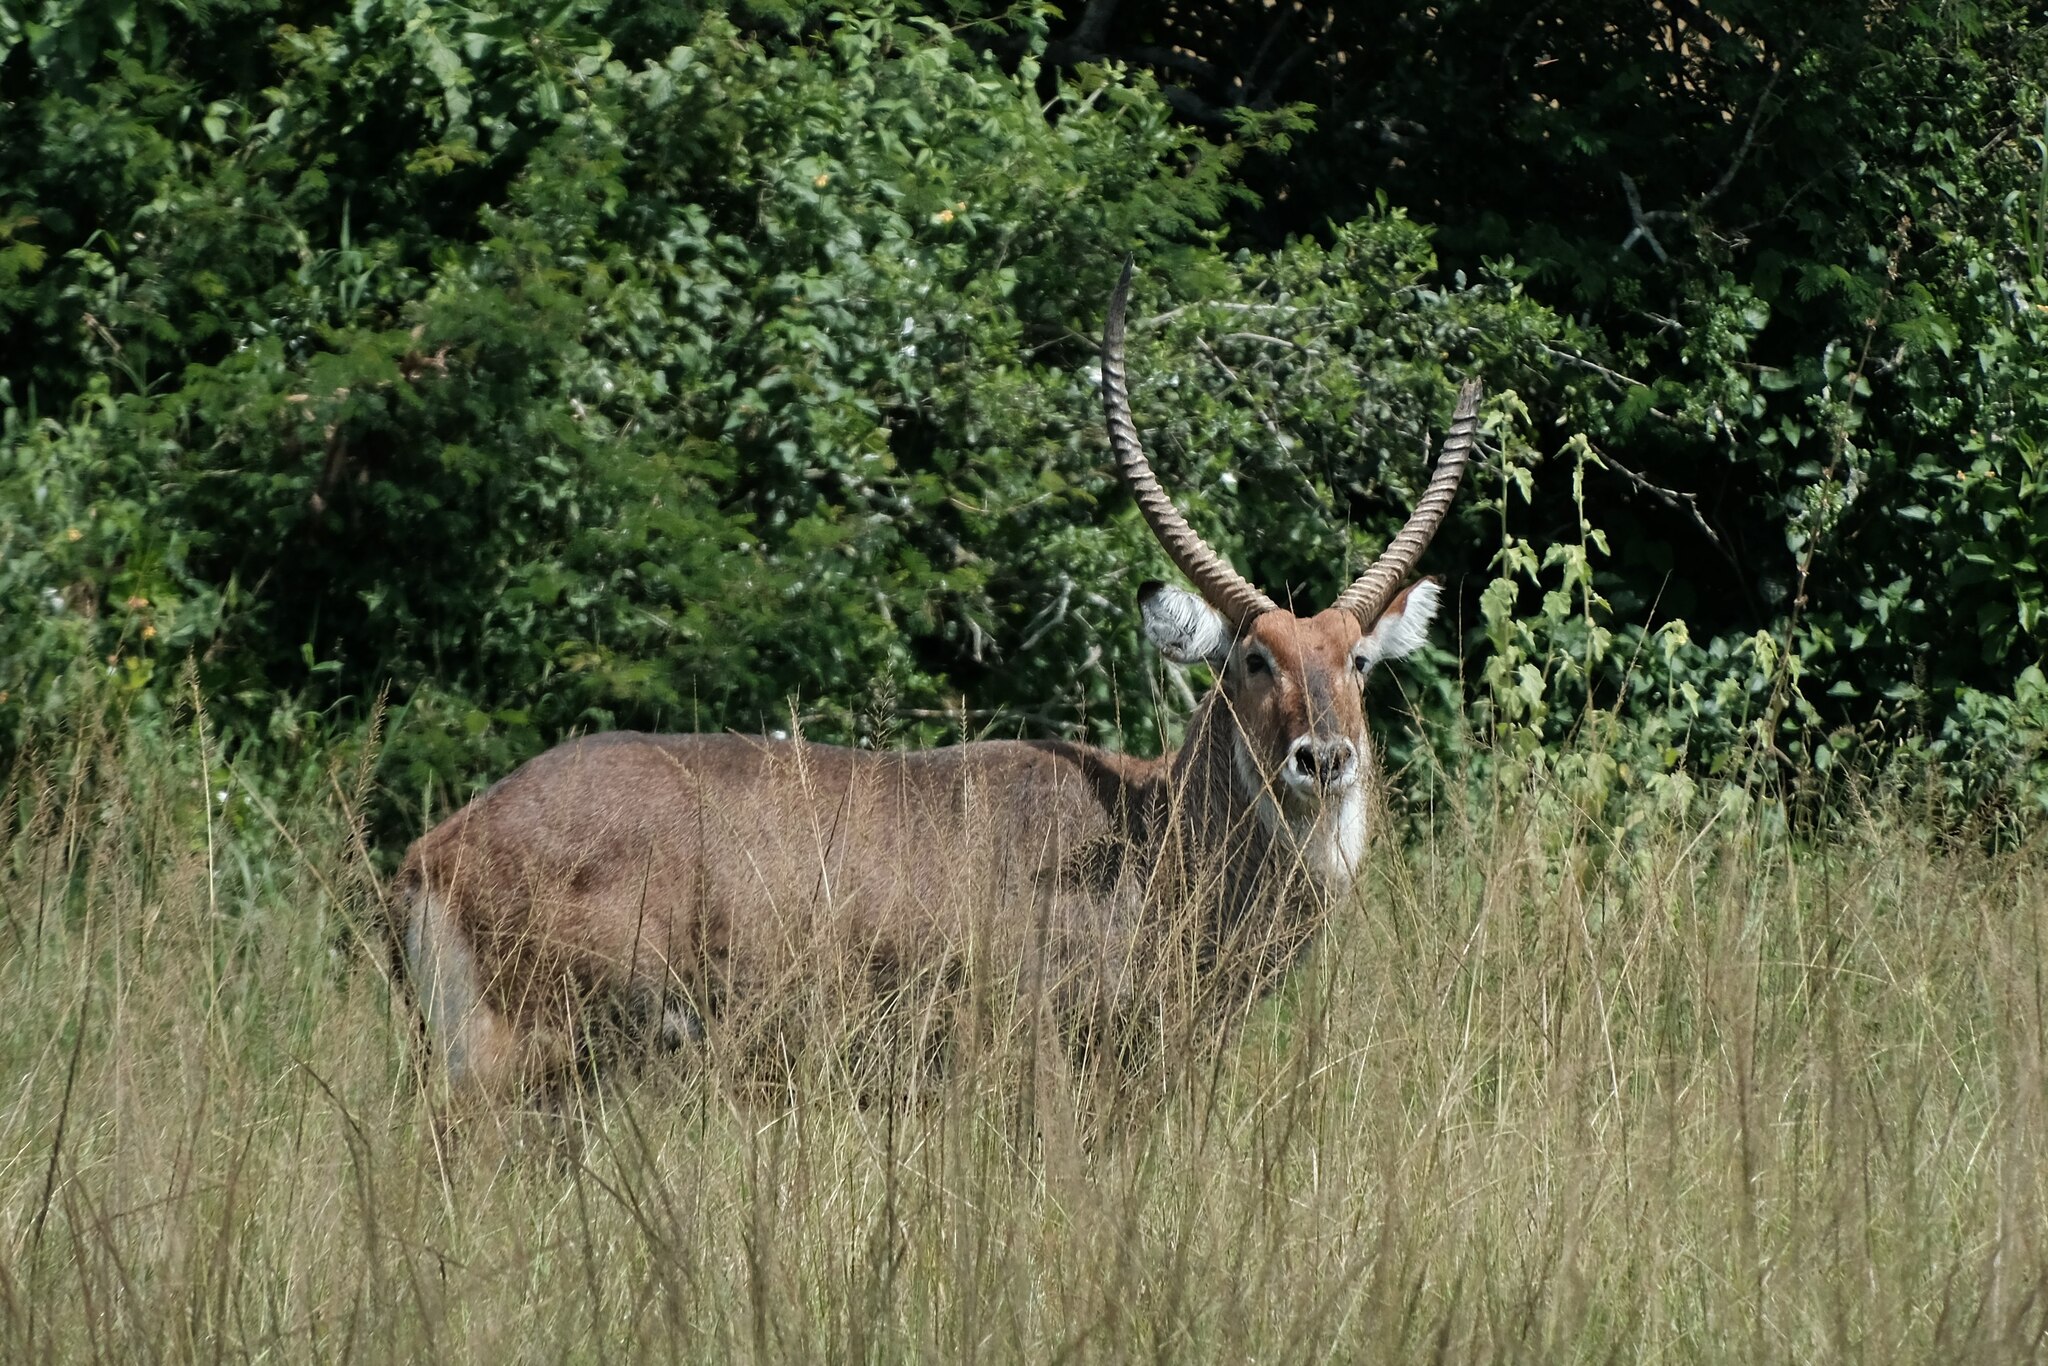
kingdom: Animalia
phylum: Chordata
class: Mammalia
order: Artiodactyla
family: Bovidae
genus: Kobus
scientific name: Kobus ellipsiprymnus
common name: Waterbuck
